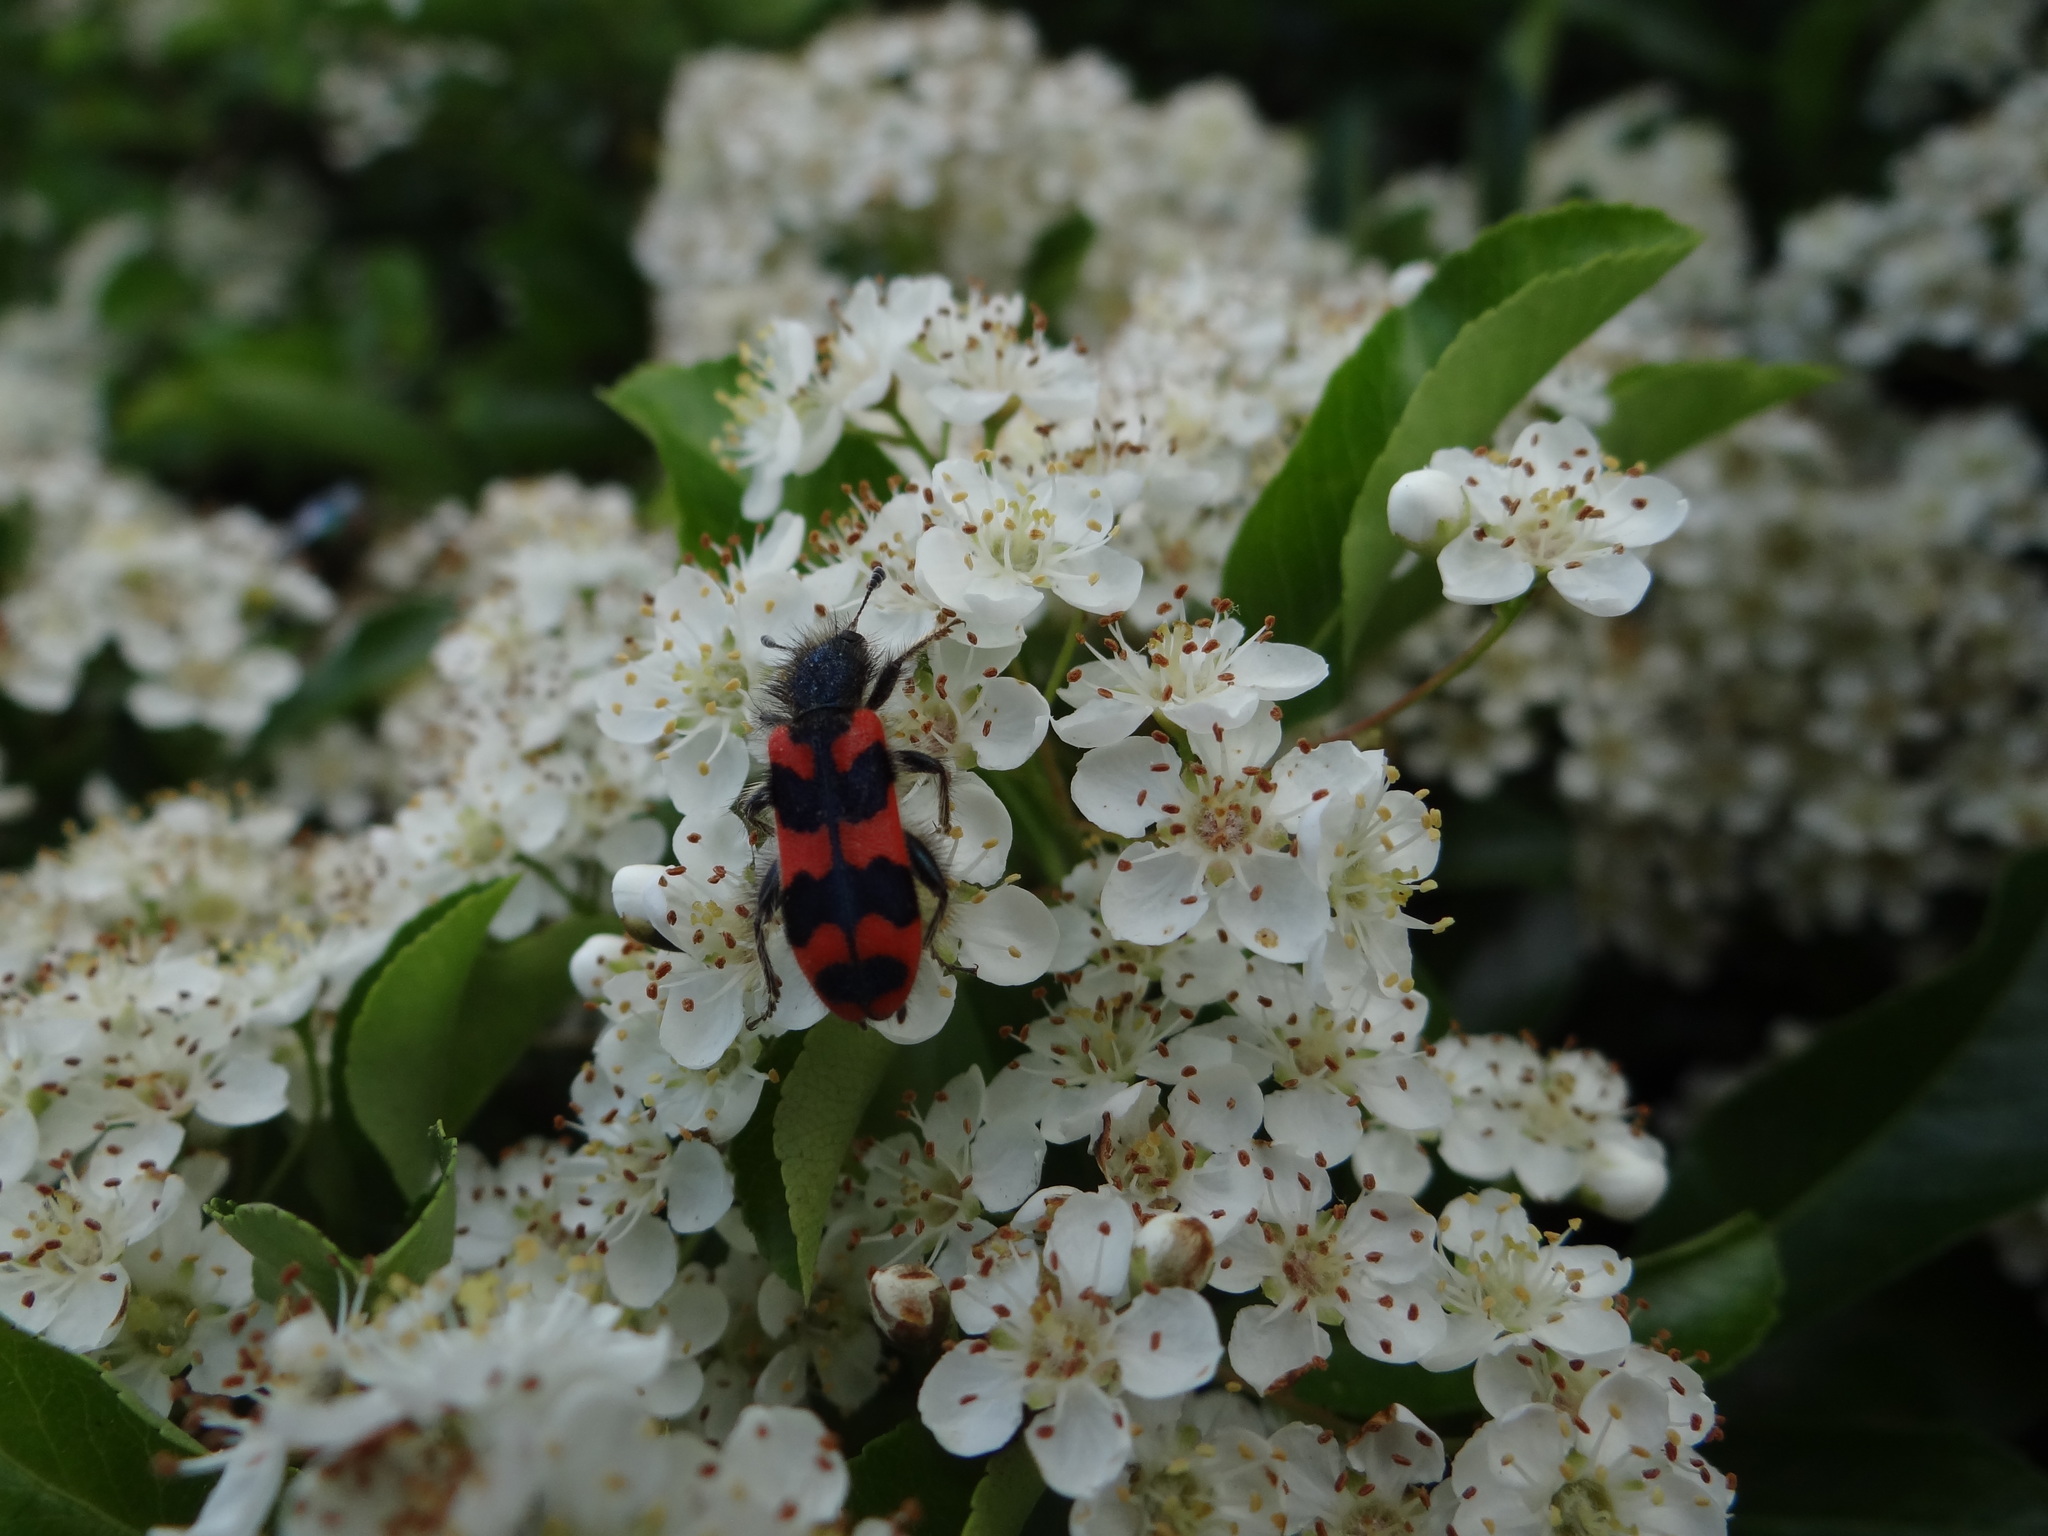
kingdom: Animalia
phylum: Arthropoda
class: Insecta
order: Coleoptera
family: Cleridae
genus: Trichodes
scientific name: Trichodes alvearius
